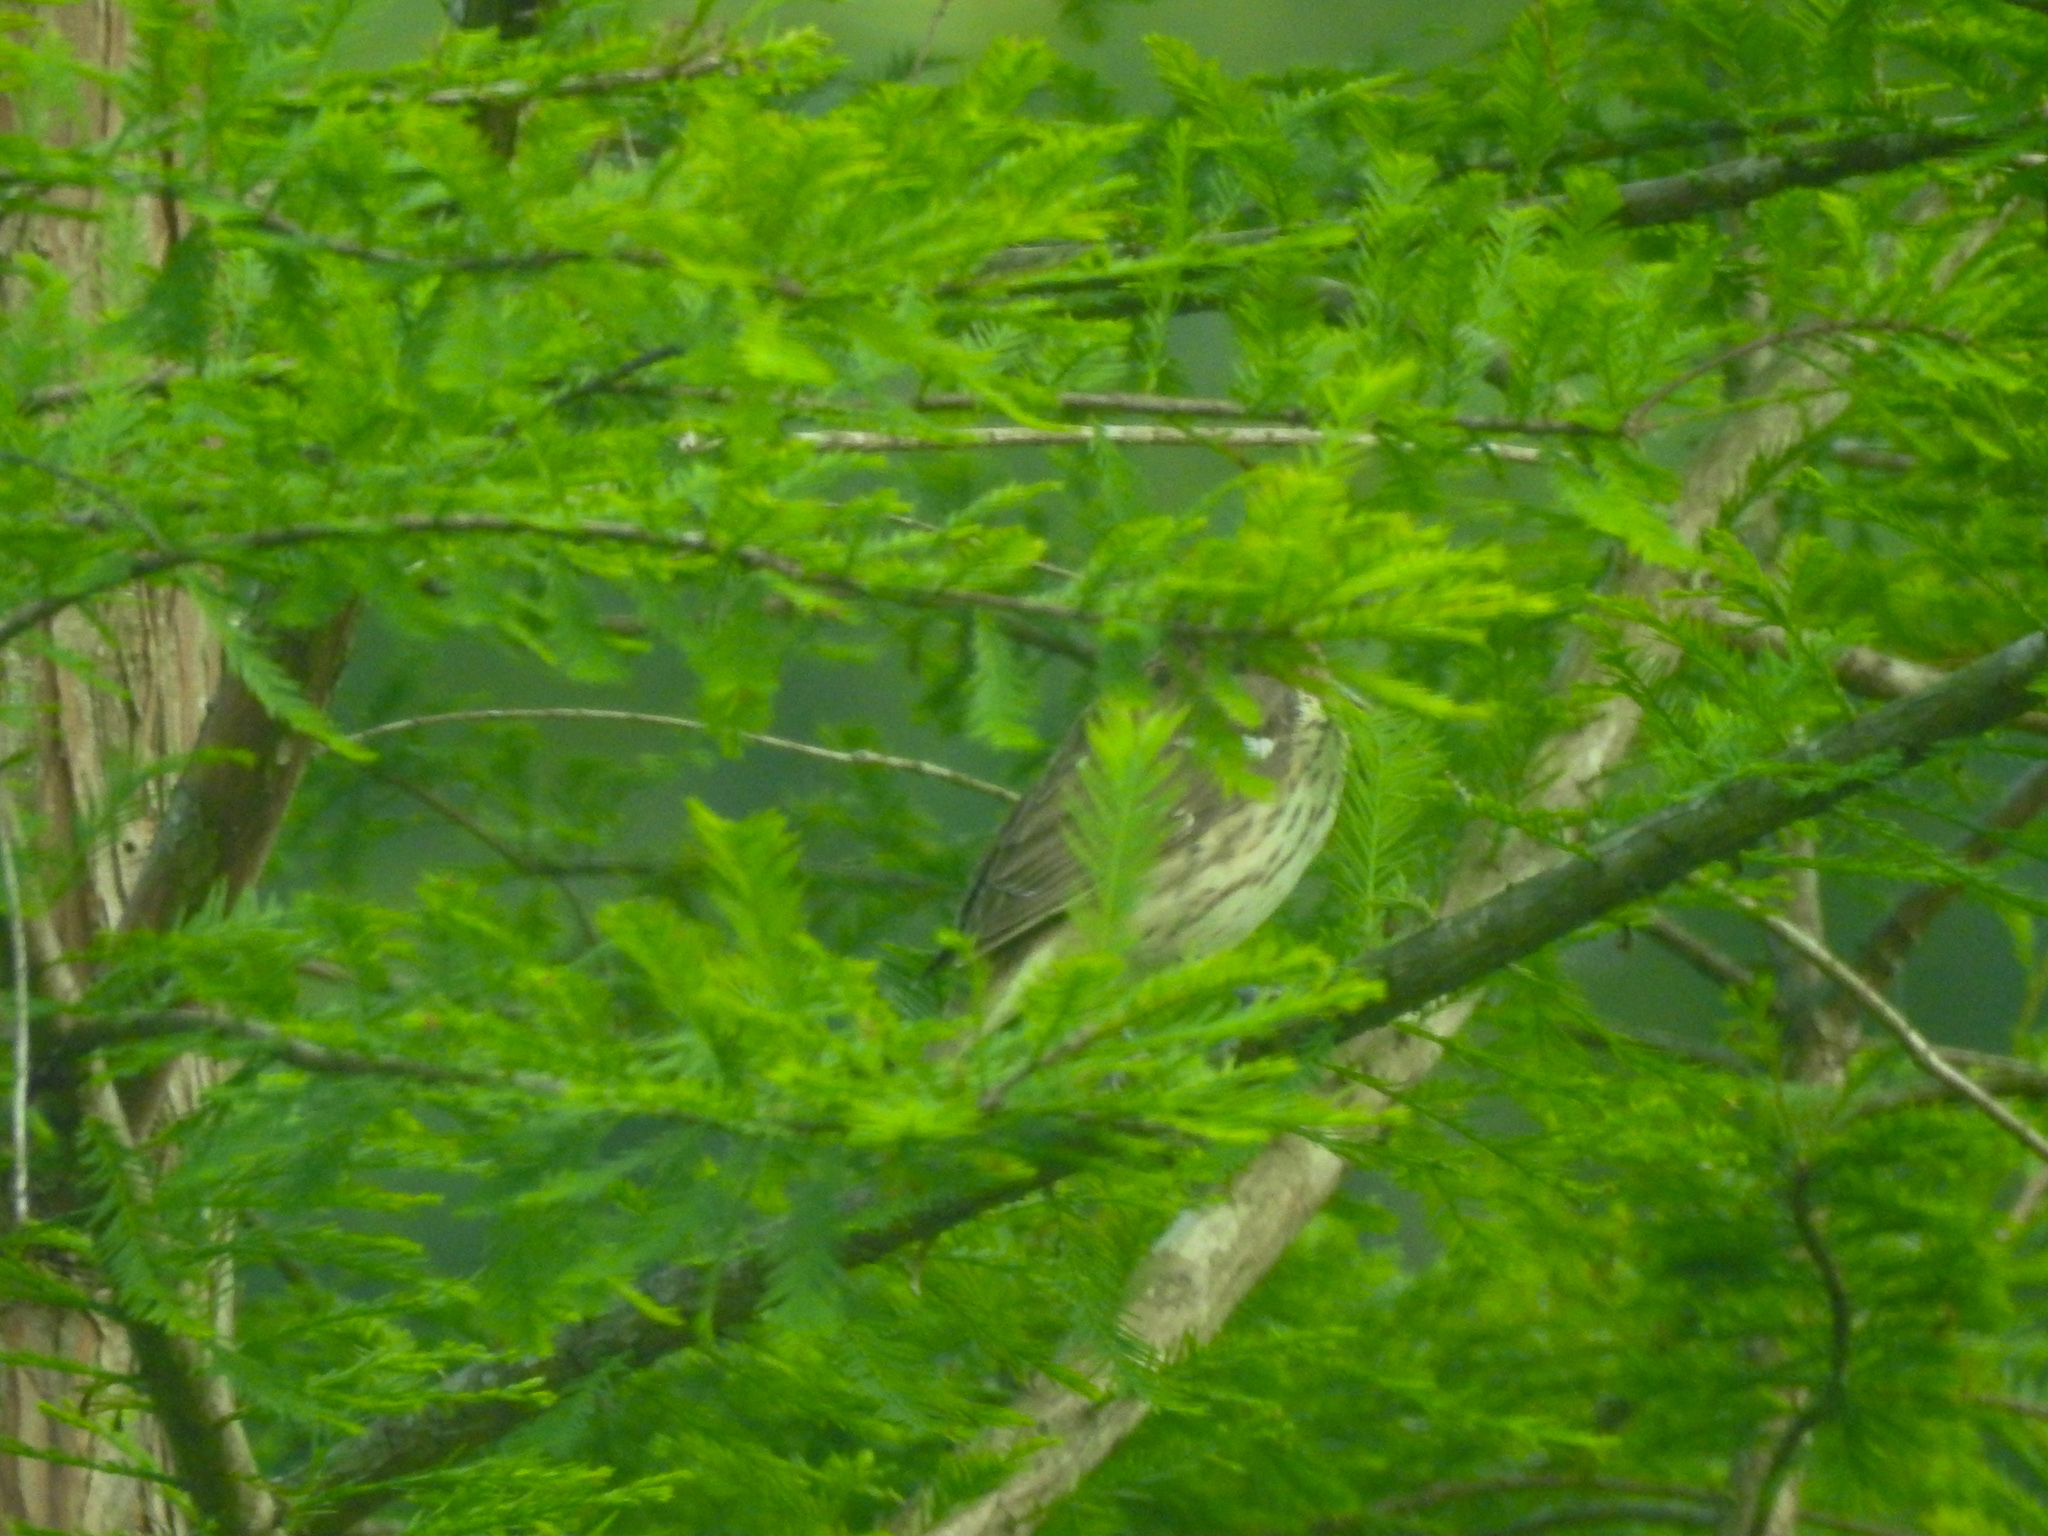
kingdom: Animalia
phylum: Chordata
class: Aves
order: Passeriformes
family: Cardinalidae
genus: Pheucticus
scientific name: Pheucticus ludovicianus
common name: Rose-breasted grosbeak
